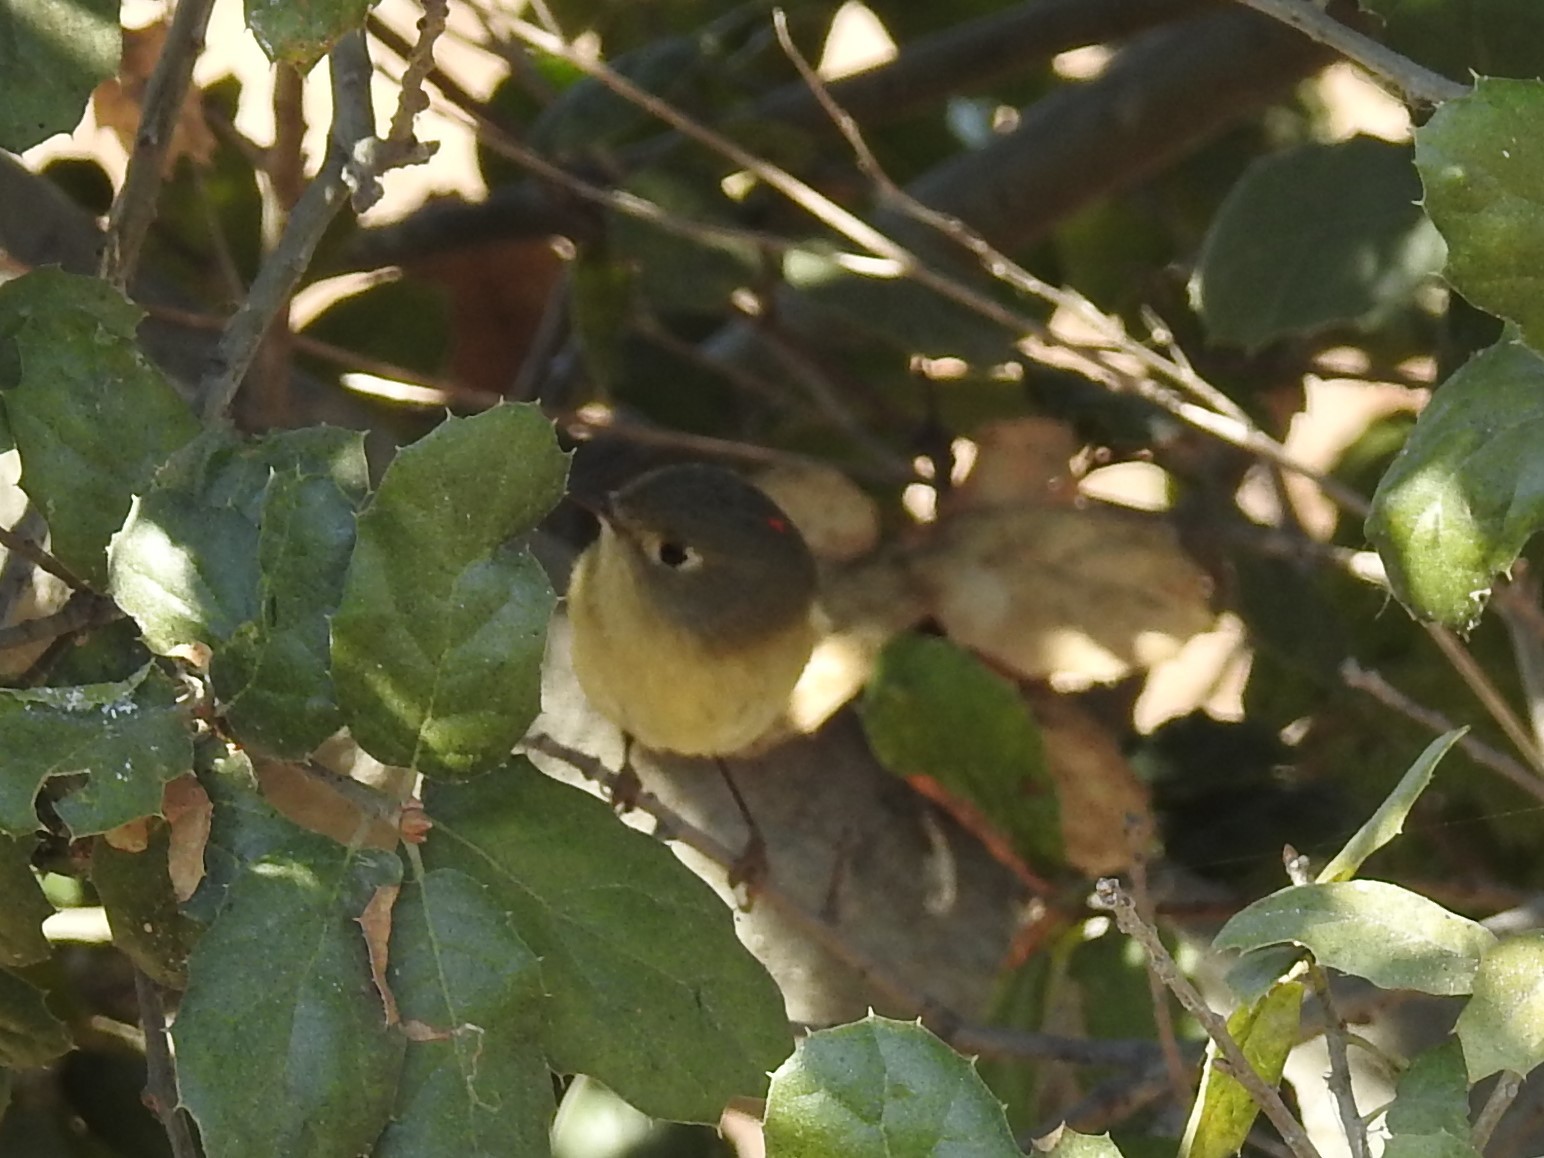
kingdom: Animalia
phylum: Chordata
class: Aves
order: Passeriformes
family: Regulidae
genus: Regulus
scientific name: Regulus calendula
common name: Ruby-crowned kinglet
